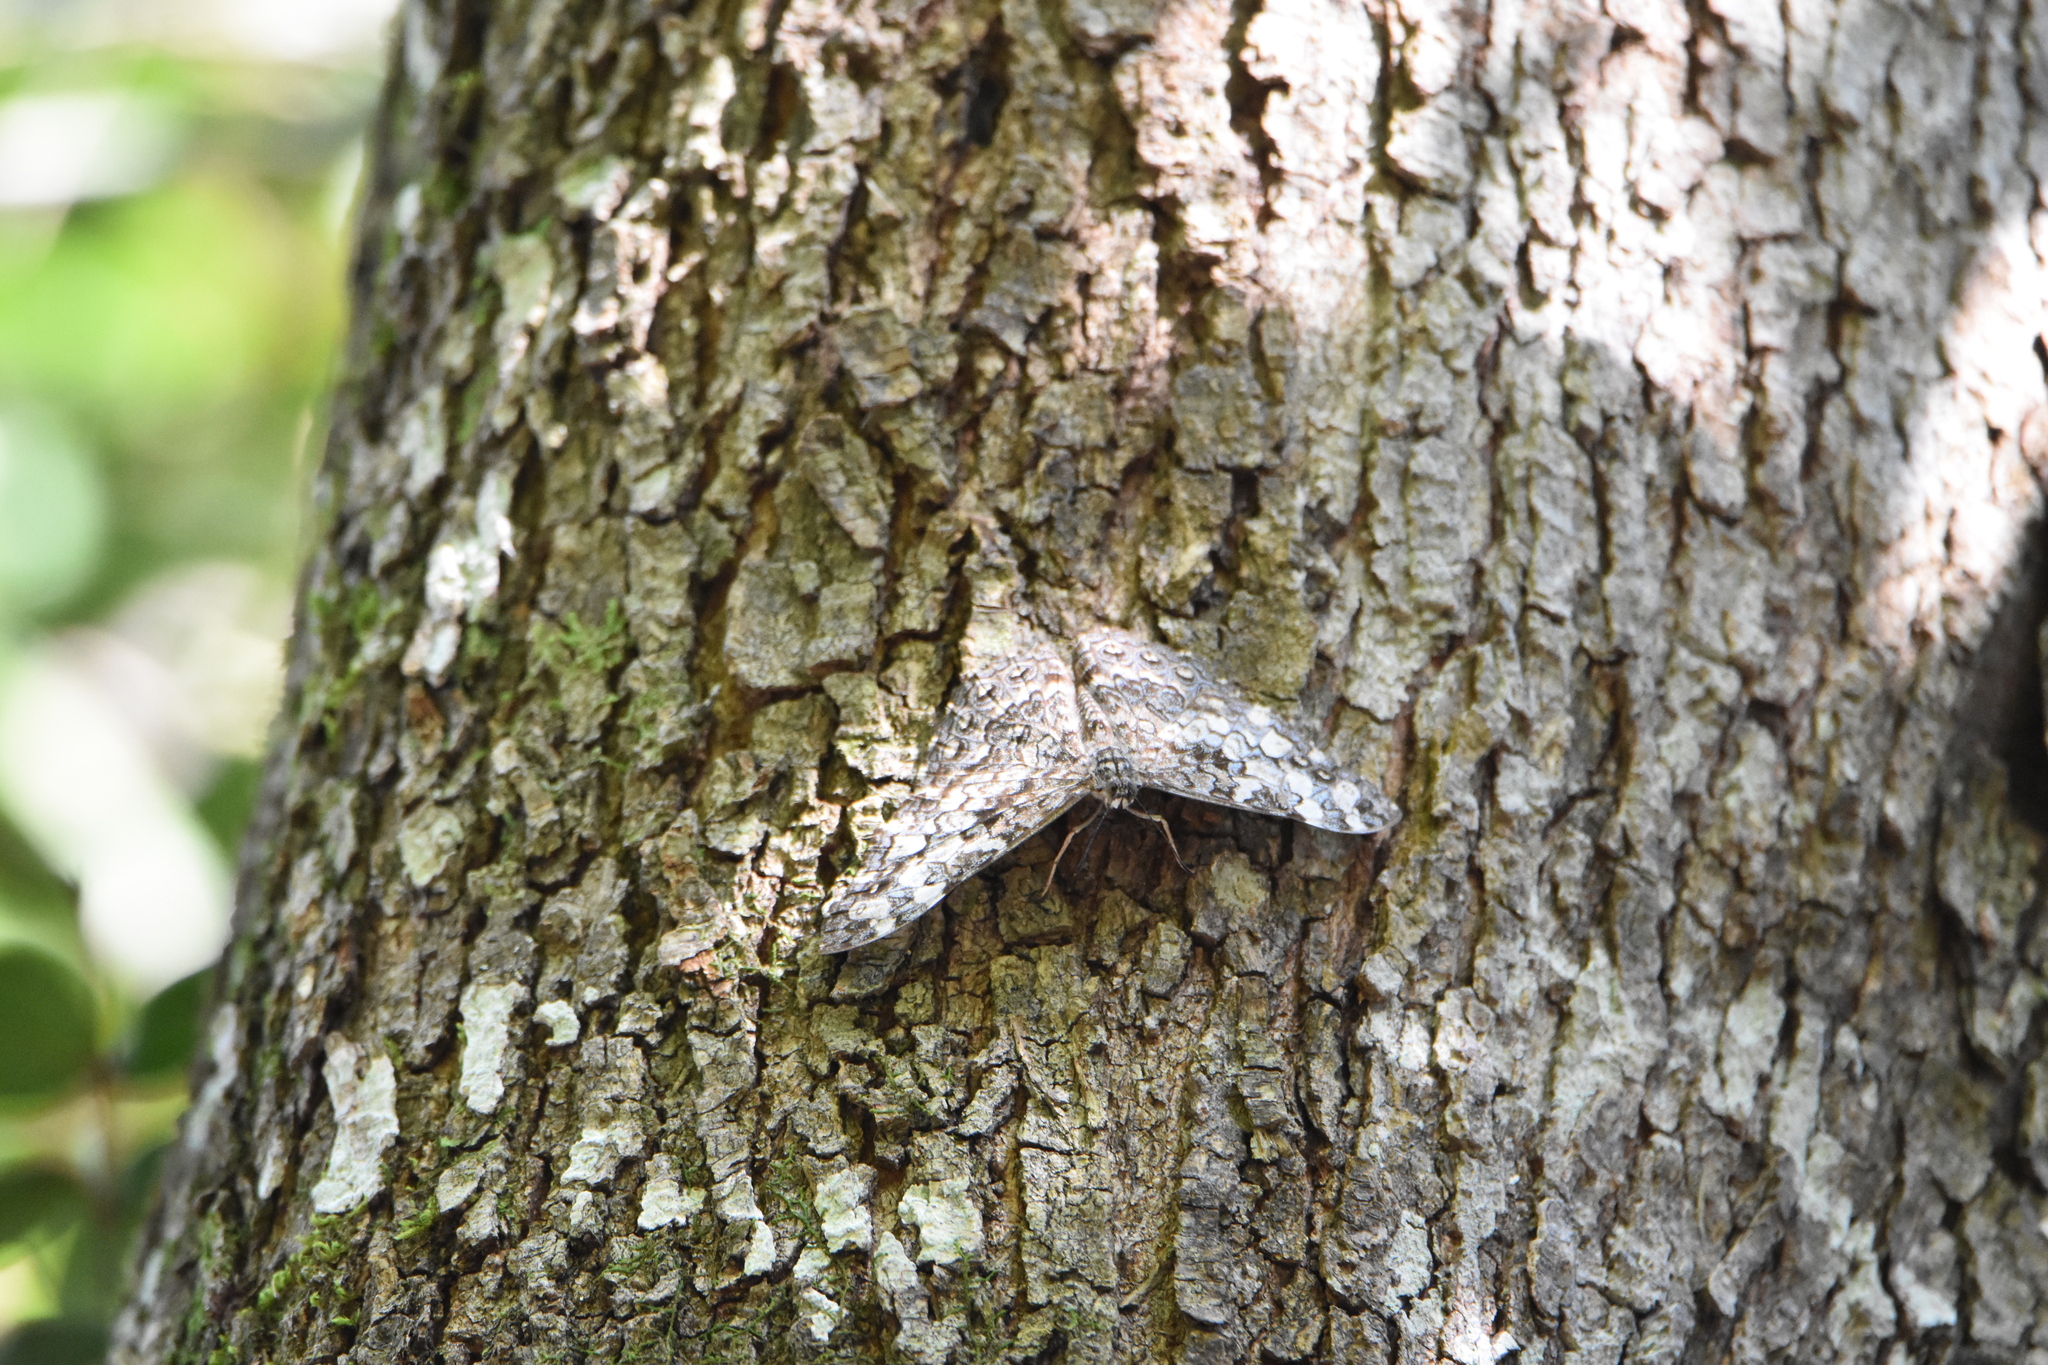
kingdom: Animalia
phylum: Arthropoda
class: Insecta
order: Lepidoptera
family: Nymphalidae
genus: Hamadryas
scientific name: Hamadryas epinome
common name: Epinome cracker
